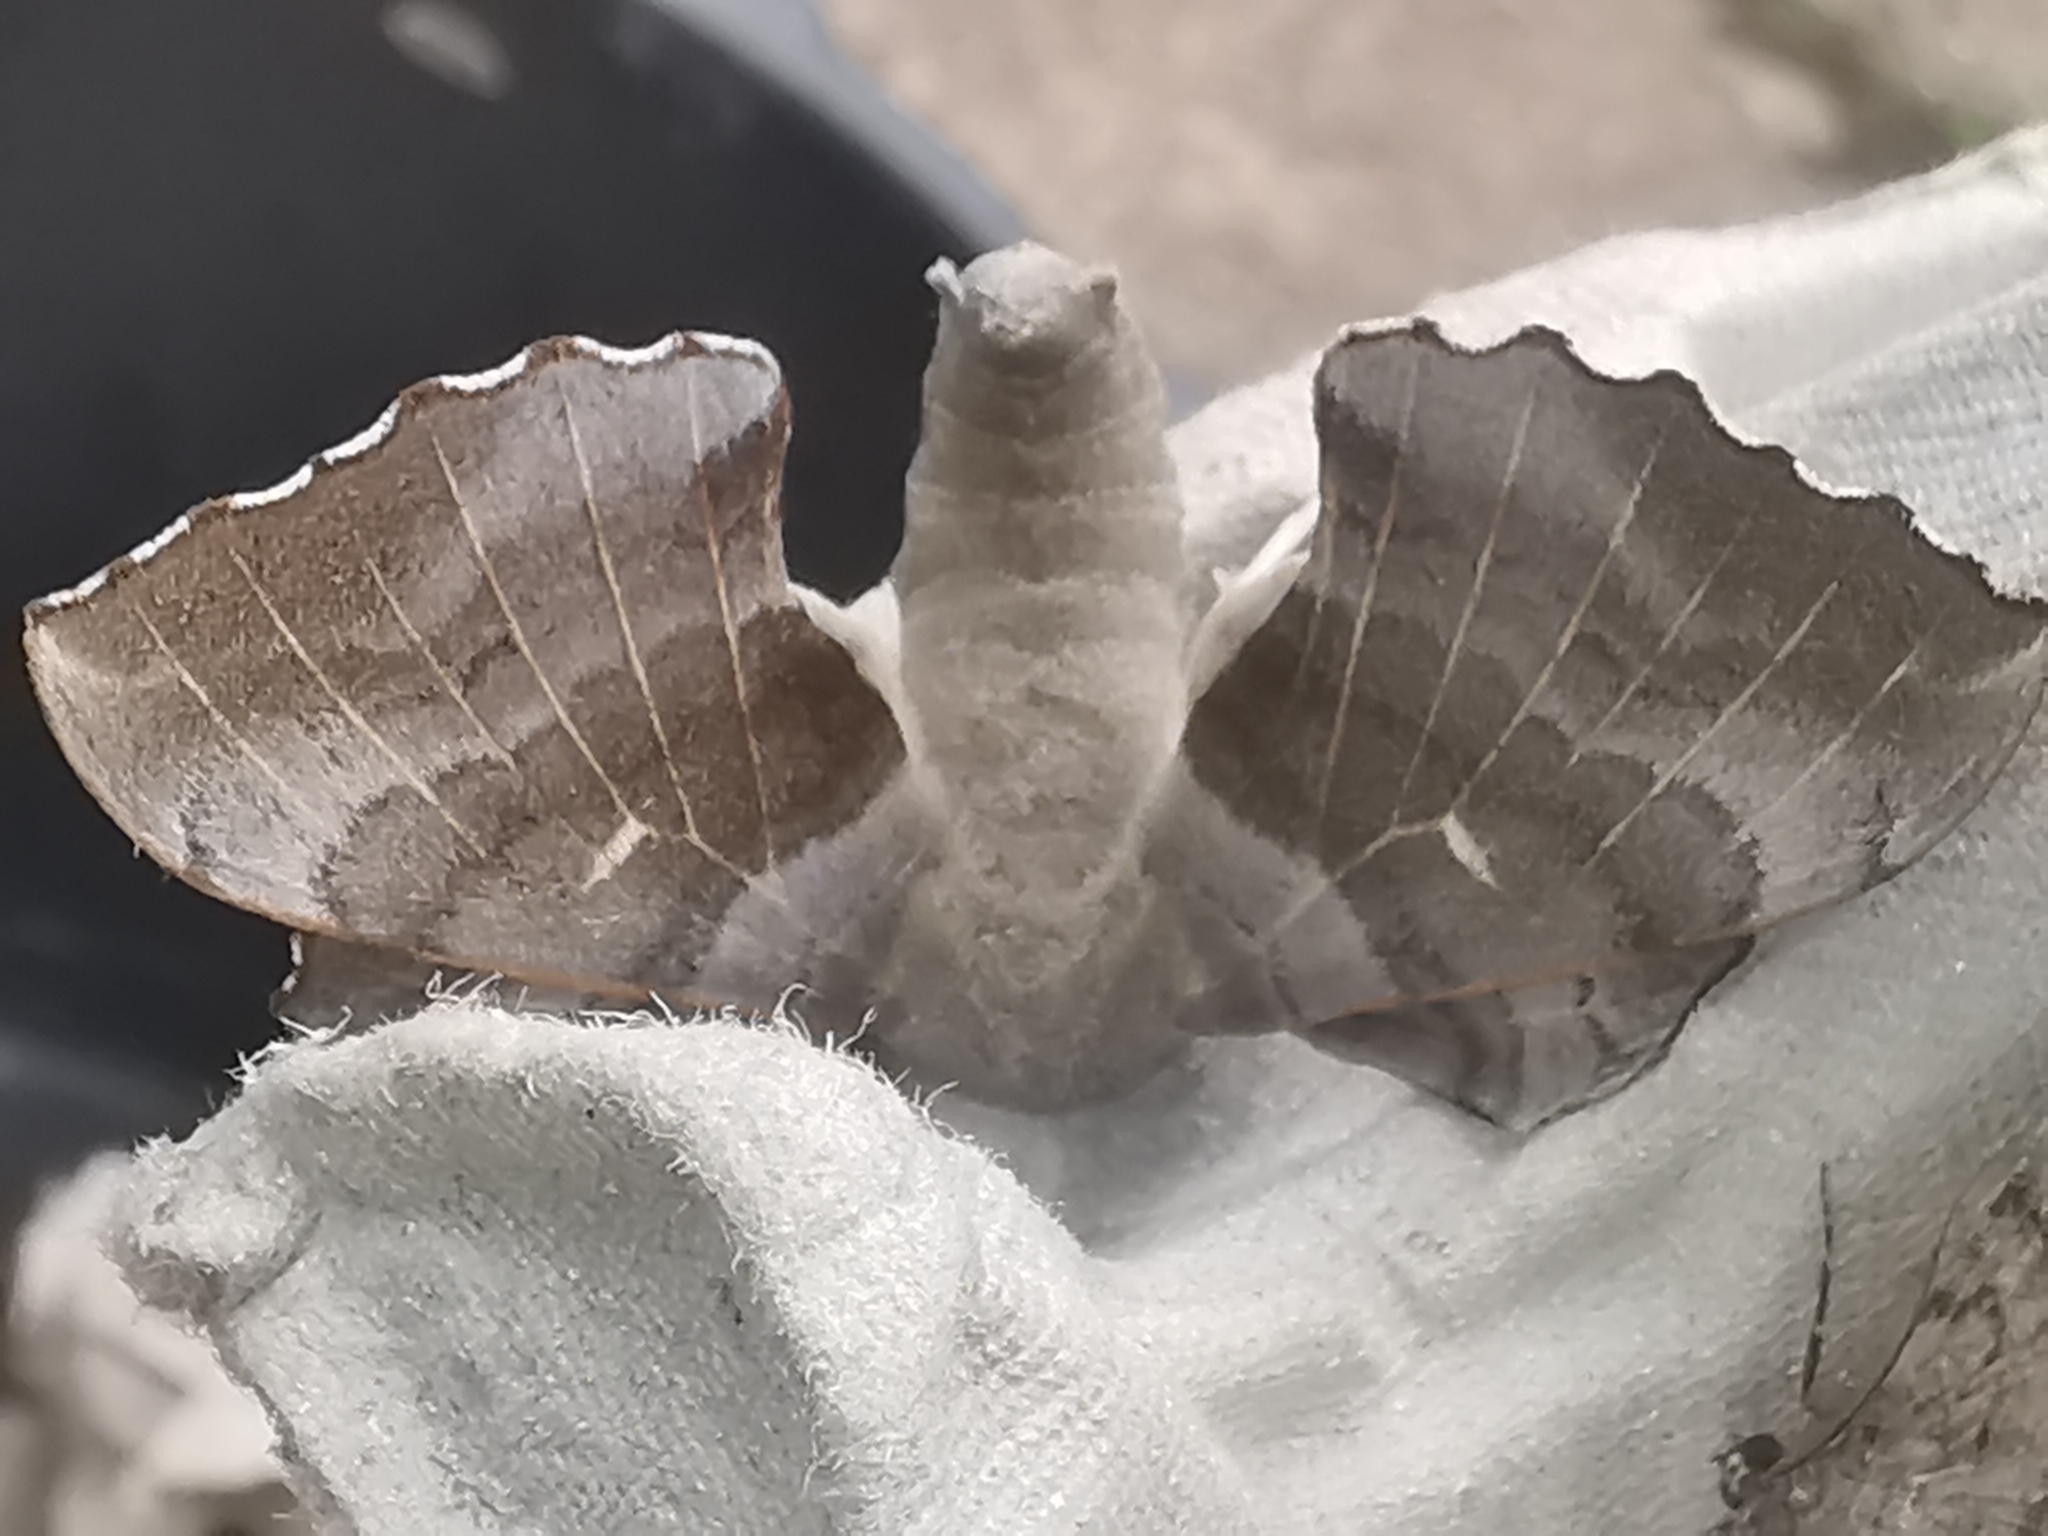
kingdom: Animalia
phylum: Arthropoda
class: Insecta
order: Lepidoptera
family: Sphingidae
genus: Laothoe
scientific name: Laothoe populi
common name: Poplar hawk-moth
